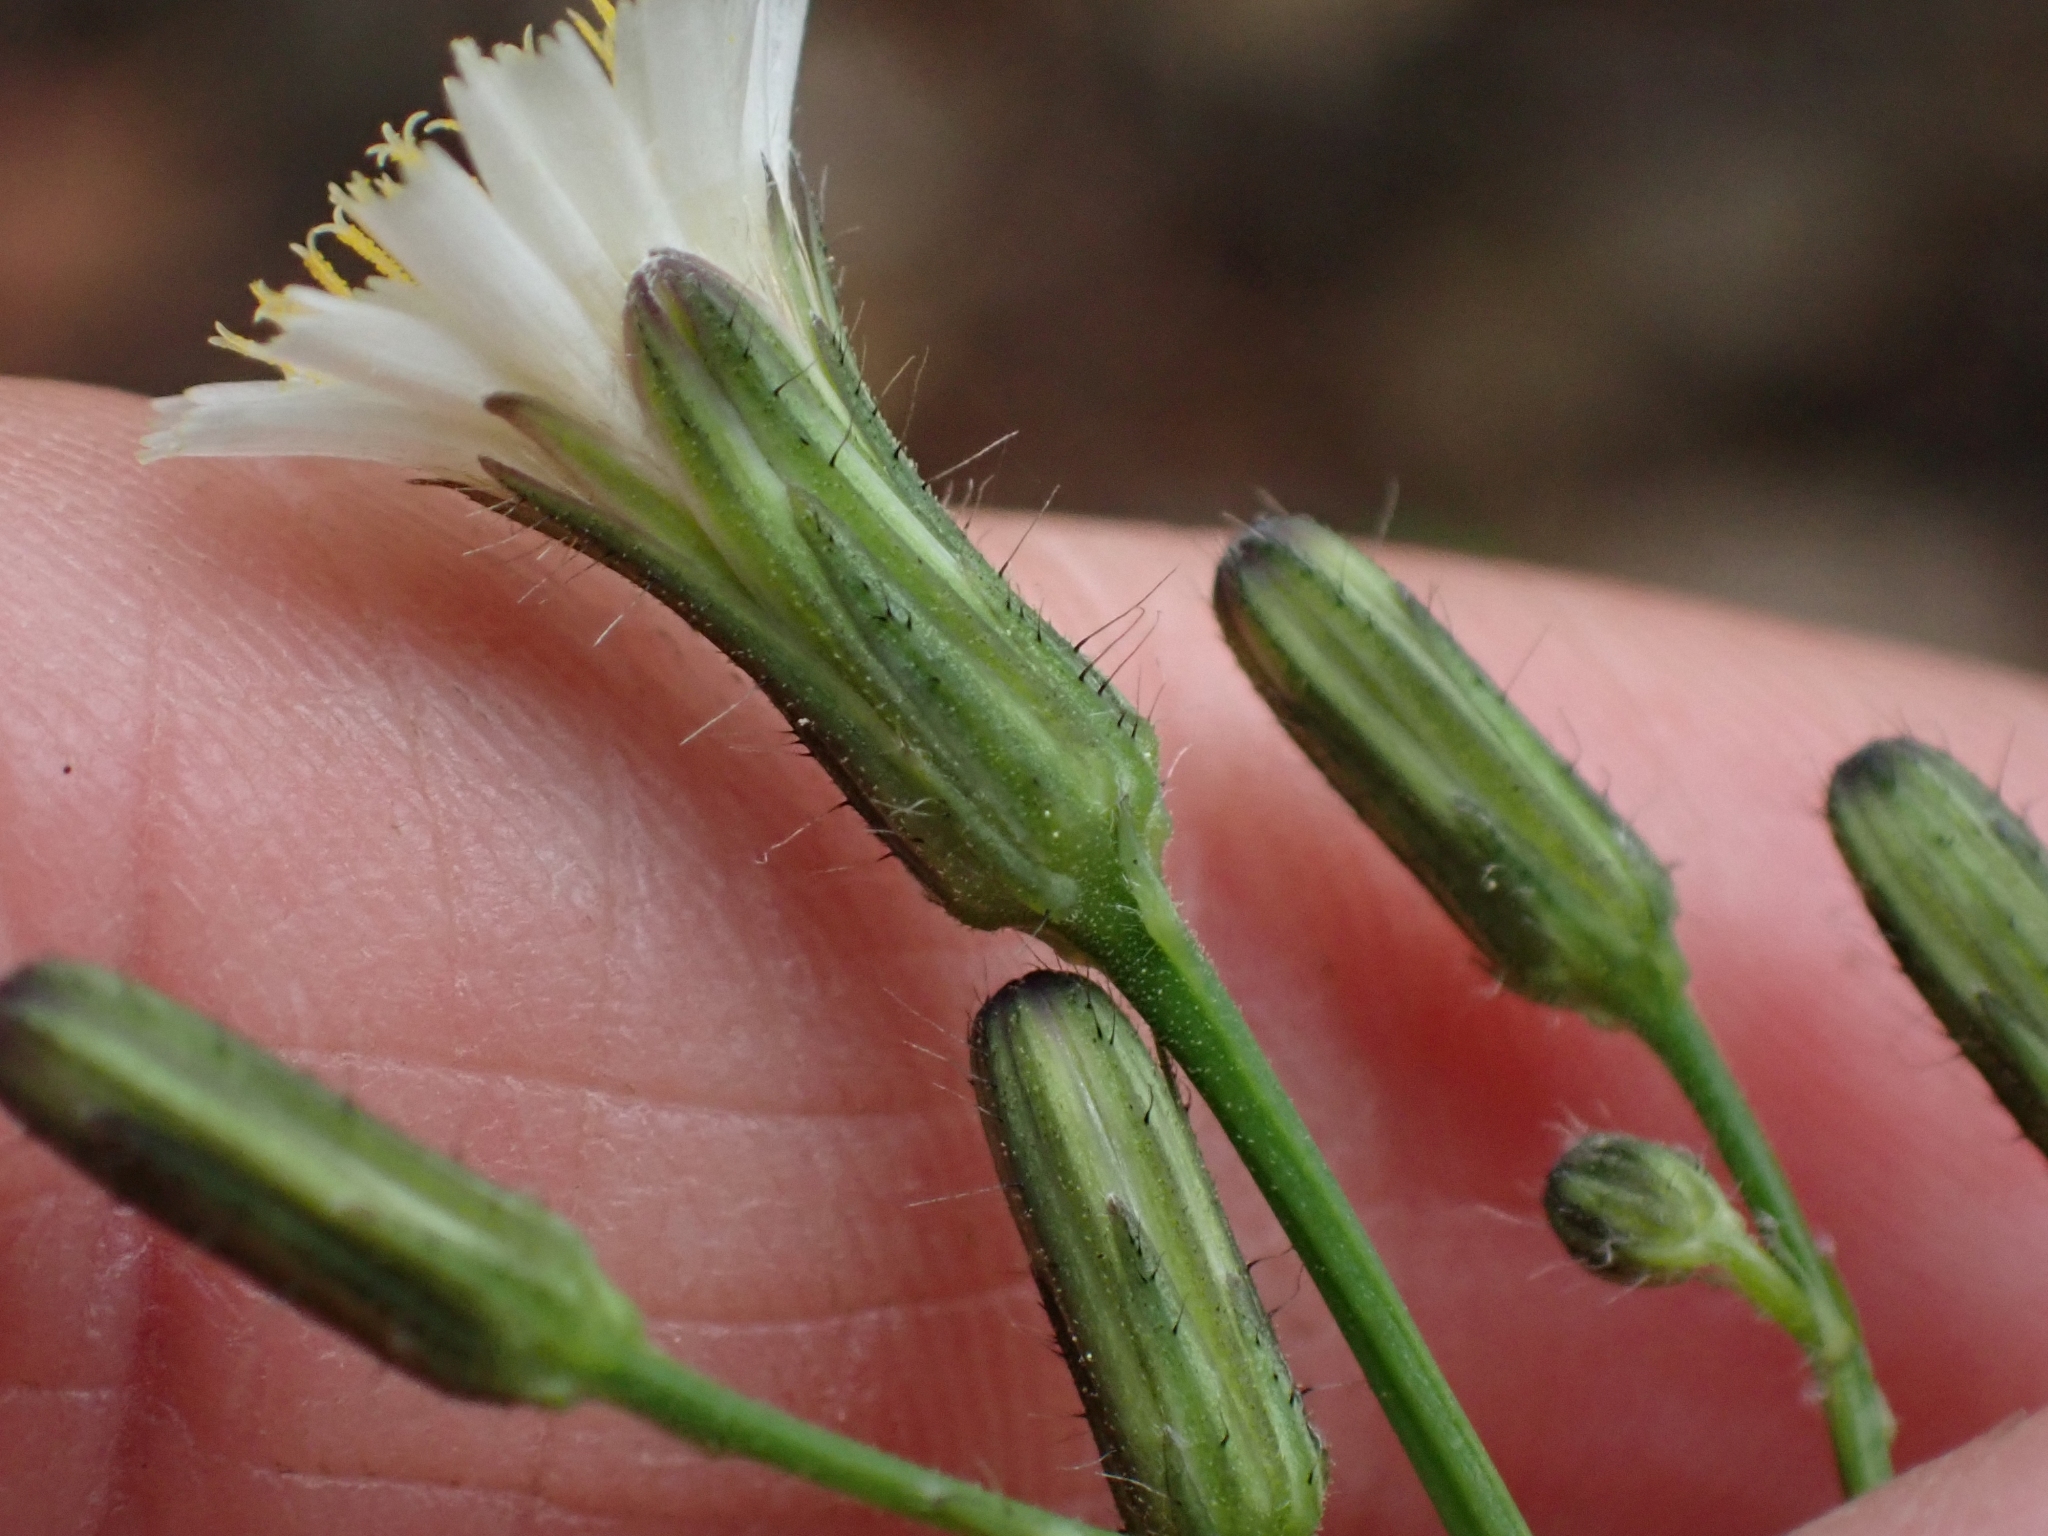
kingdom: Plantae
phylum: Tracheophyta
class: Magnoliopsida
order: Asterales
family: Asteraceae
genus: Hieracium
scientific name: Hieracium albiflorum
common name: White hawkweed
